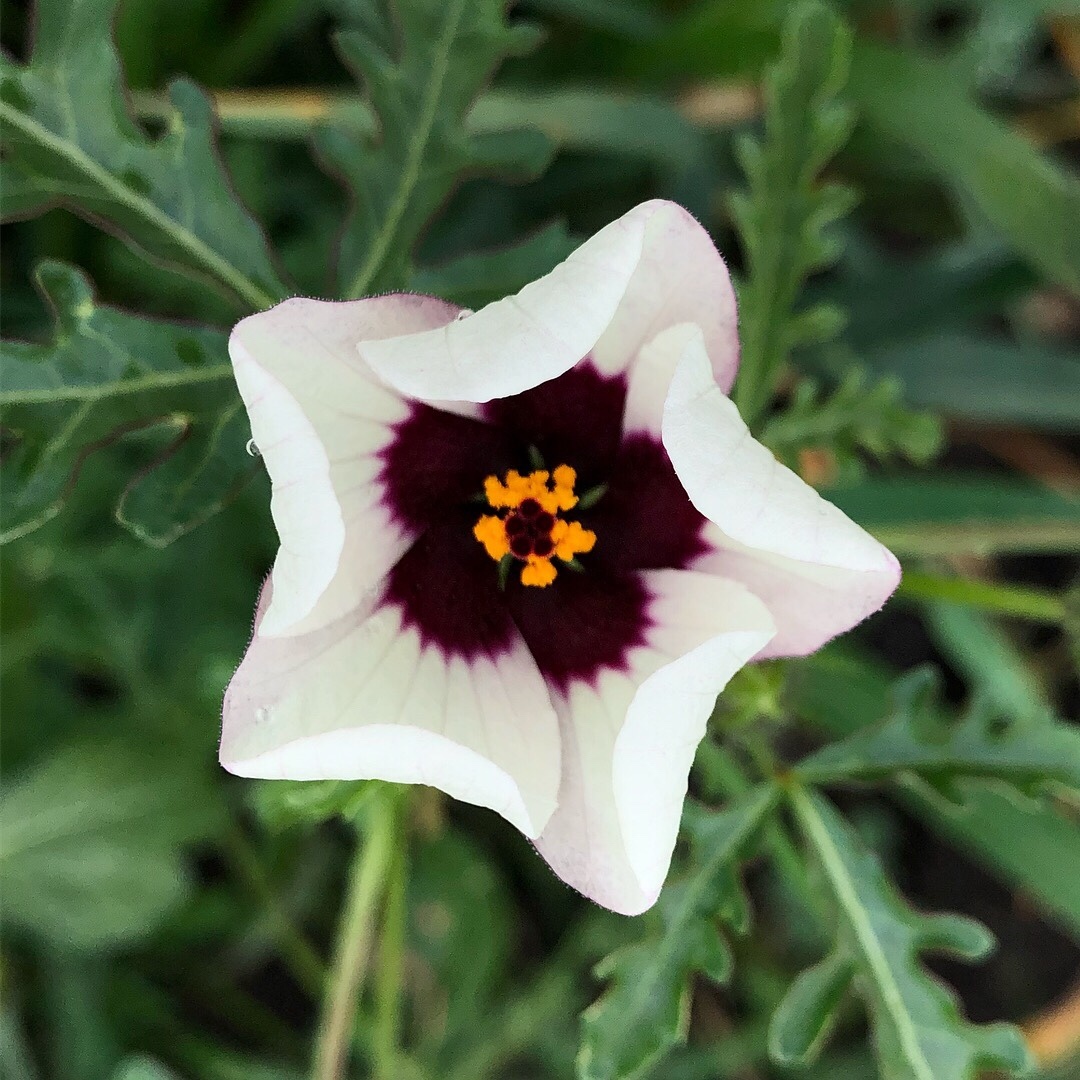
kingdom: Plantae
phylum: Tracheophyta
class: Magnoliopsida
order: Malvales
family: Malvaceae
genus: Hibiscus
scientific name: Hibiscus trionum
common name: Bladder ketmia
